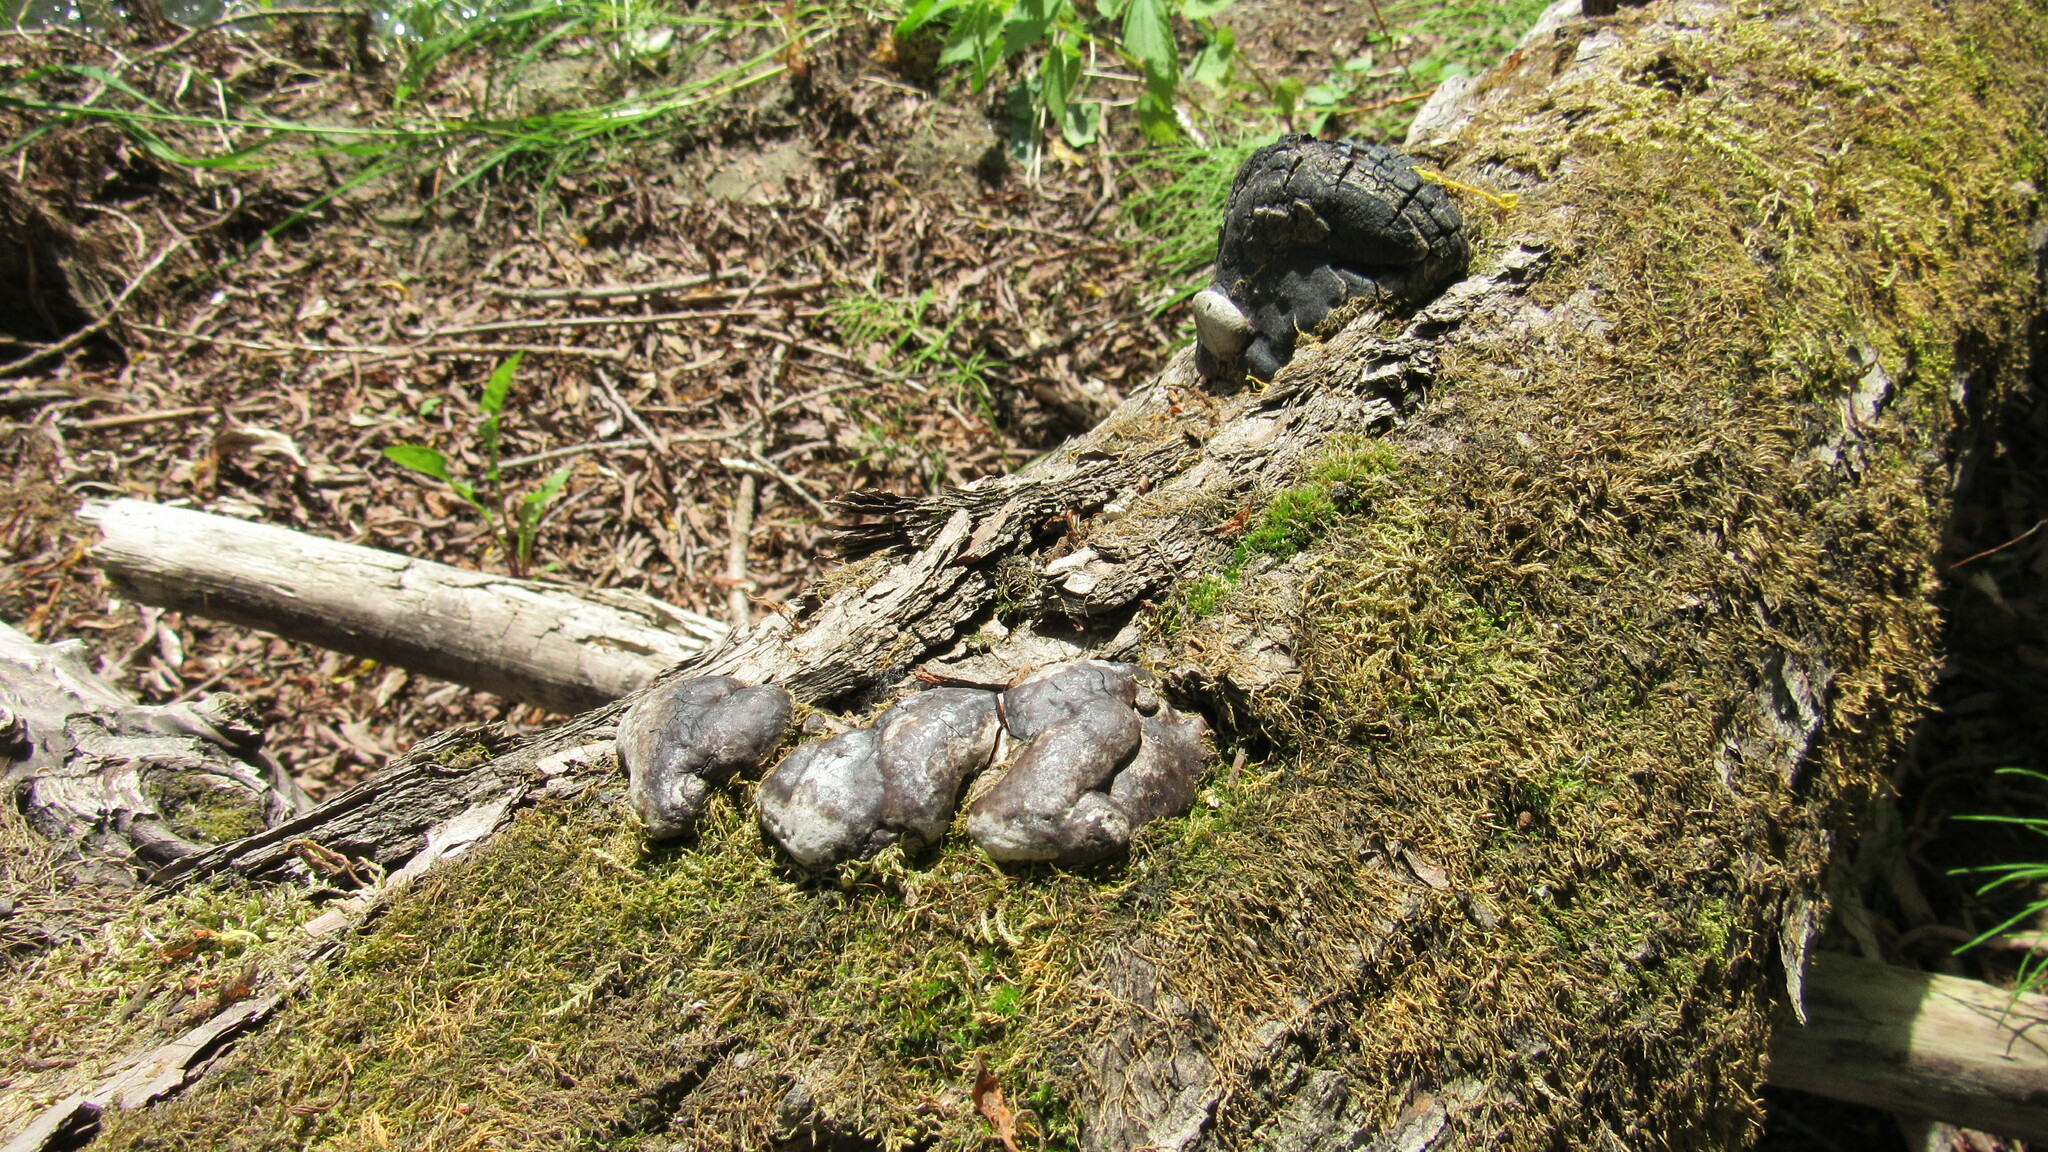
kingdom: Fungi
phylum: Basidiomycota
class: Agaricomycetes
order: Hymenochaetales
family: Hymenochaetaceae
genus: Phellinus
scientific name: Phellinus igniarius
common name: Willow bracket
